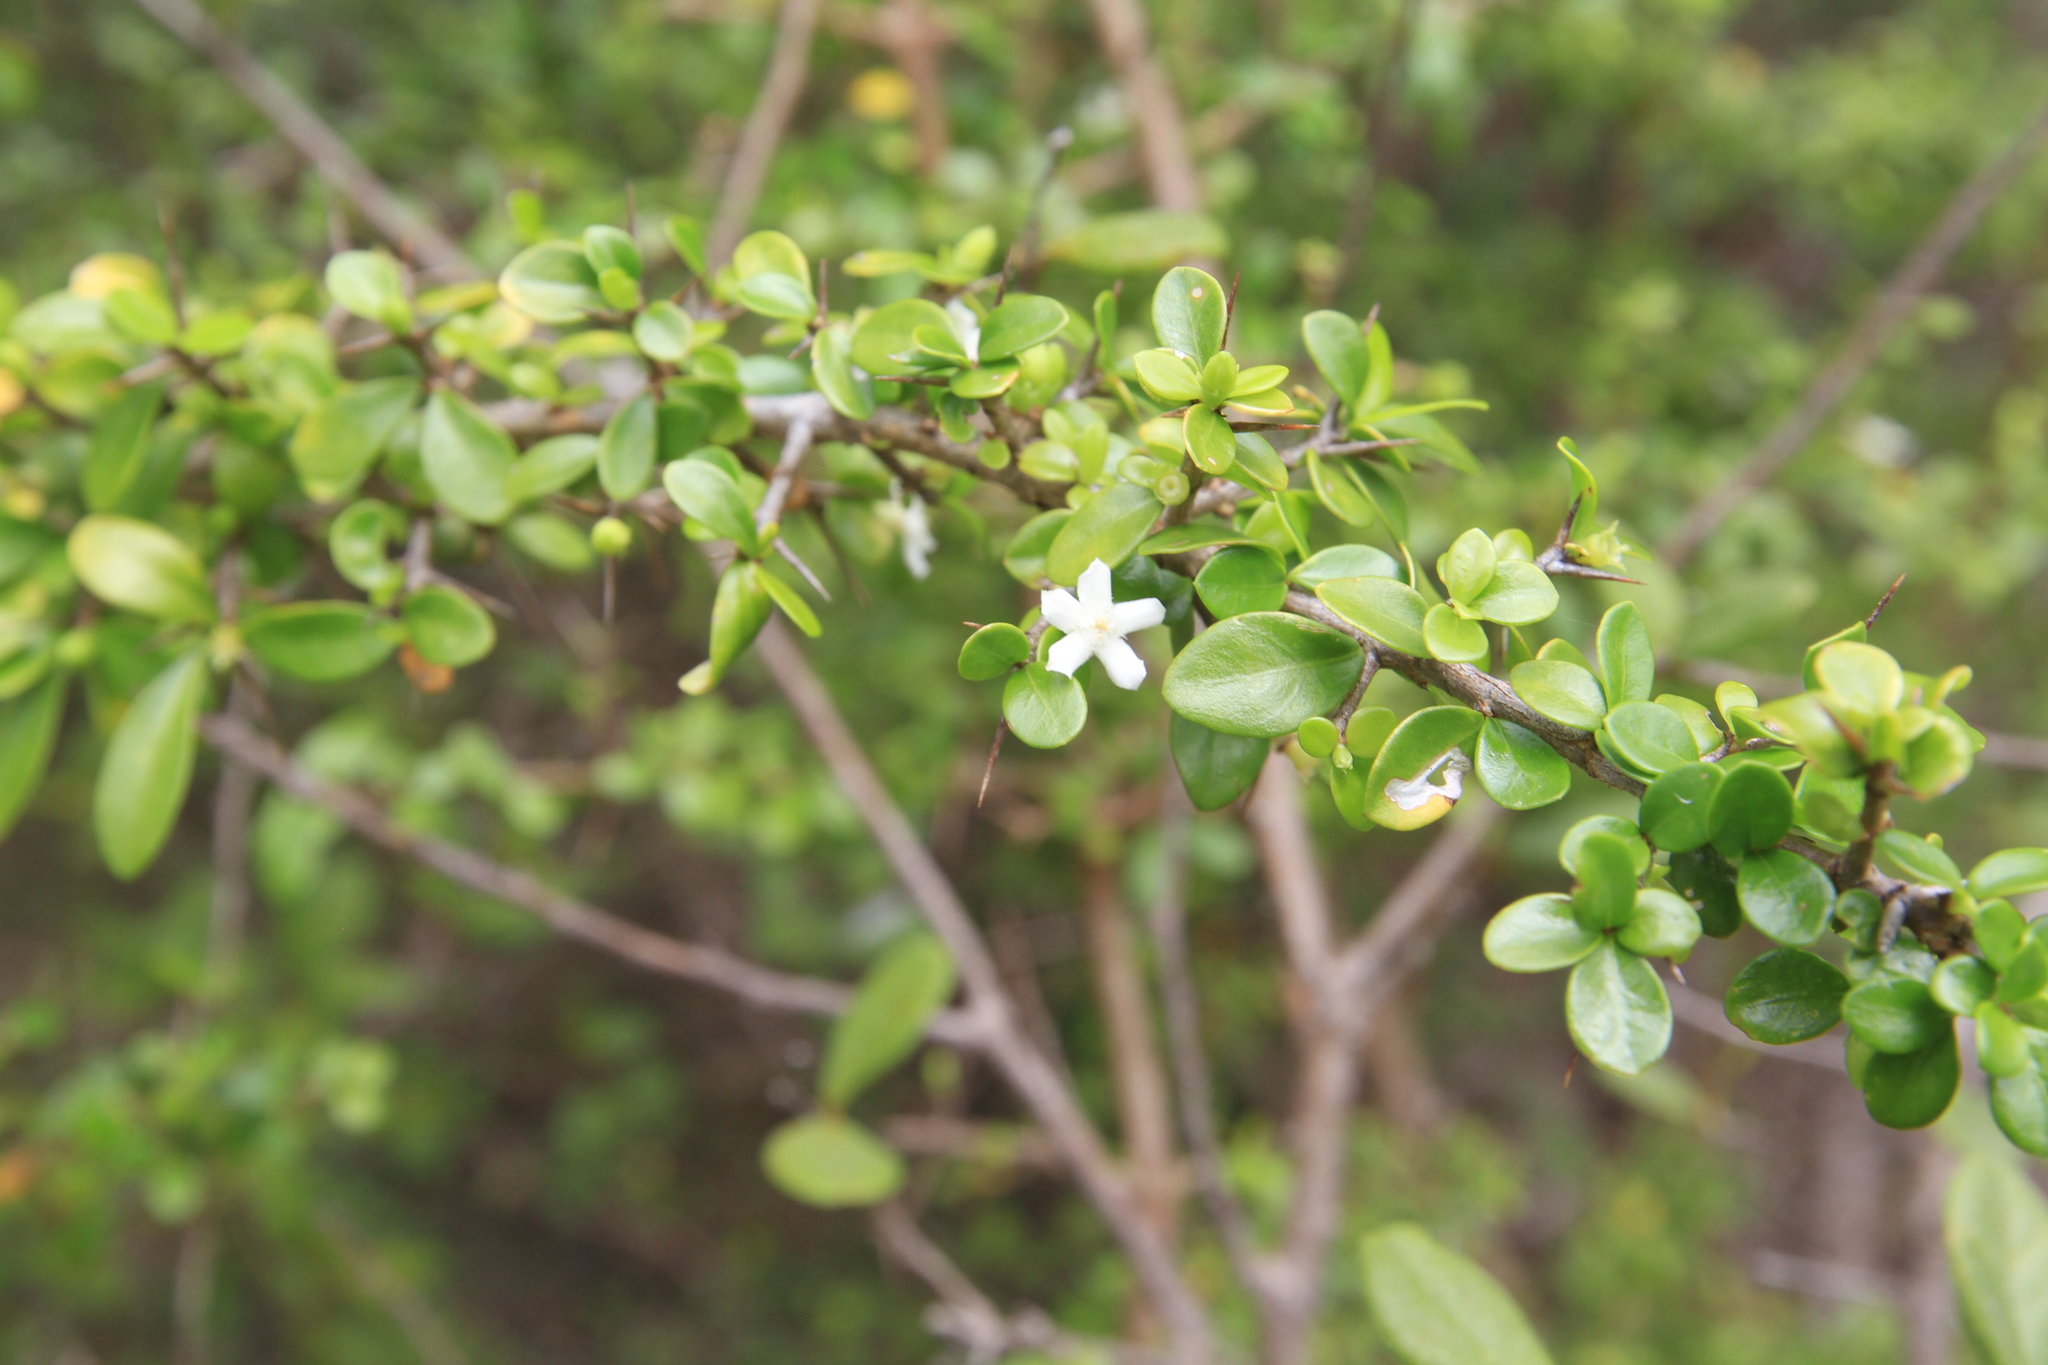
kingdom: Plantae
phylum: Tracheophyta
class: Magnoliopsida
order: Gentianales
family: Rubiaceae
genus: Randia
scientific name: Randia aculeata
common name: Inkberry
